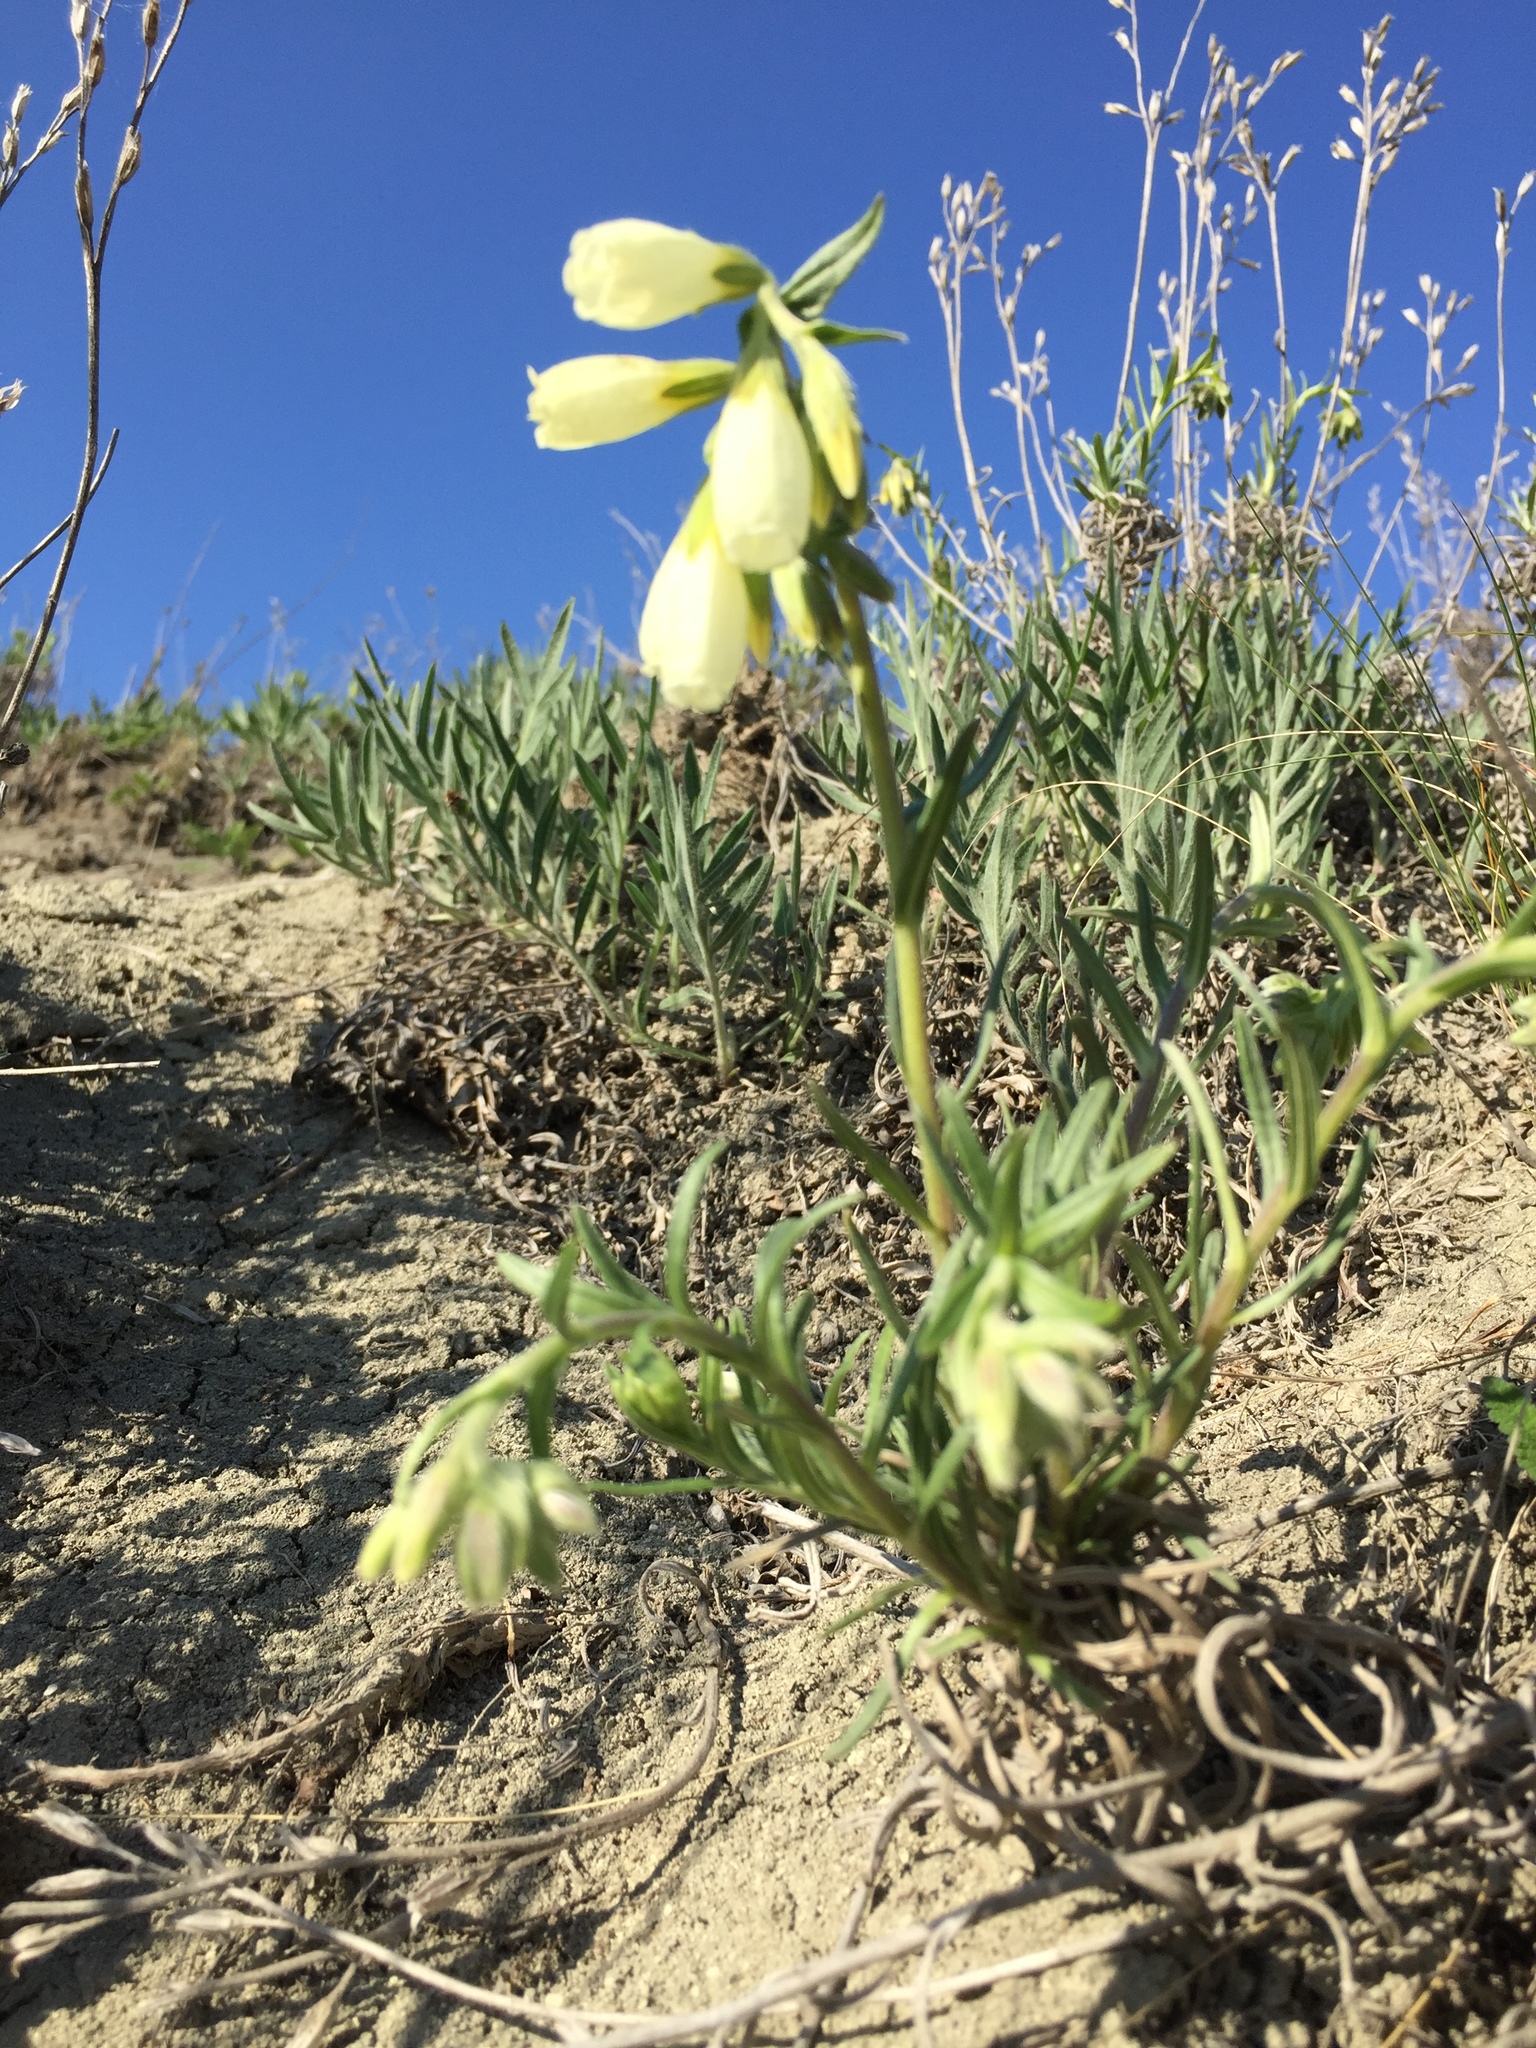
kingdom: Plantae
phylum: Tracheophyta
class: Magnoliopsida
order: Boraginales
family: Boraginaceae
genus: Onosma
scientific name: Onosma simplicissima
